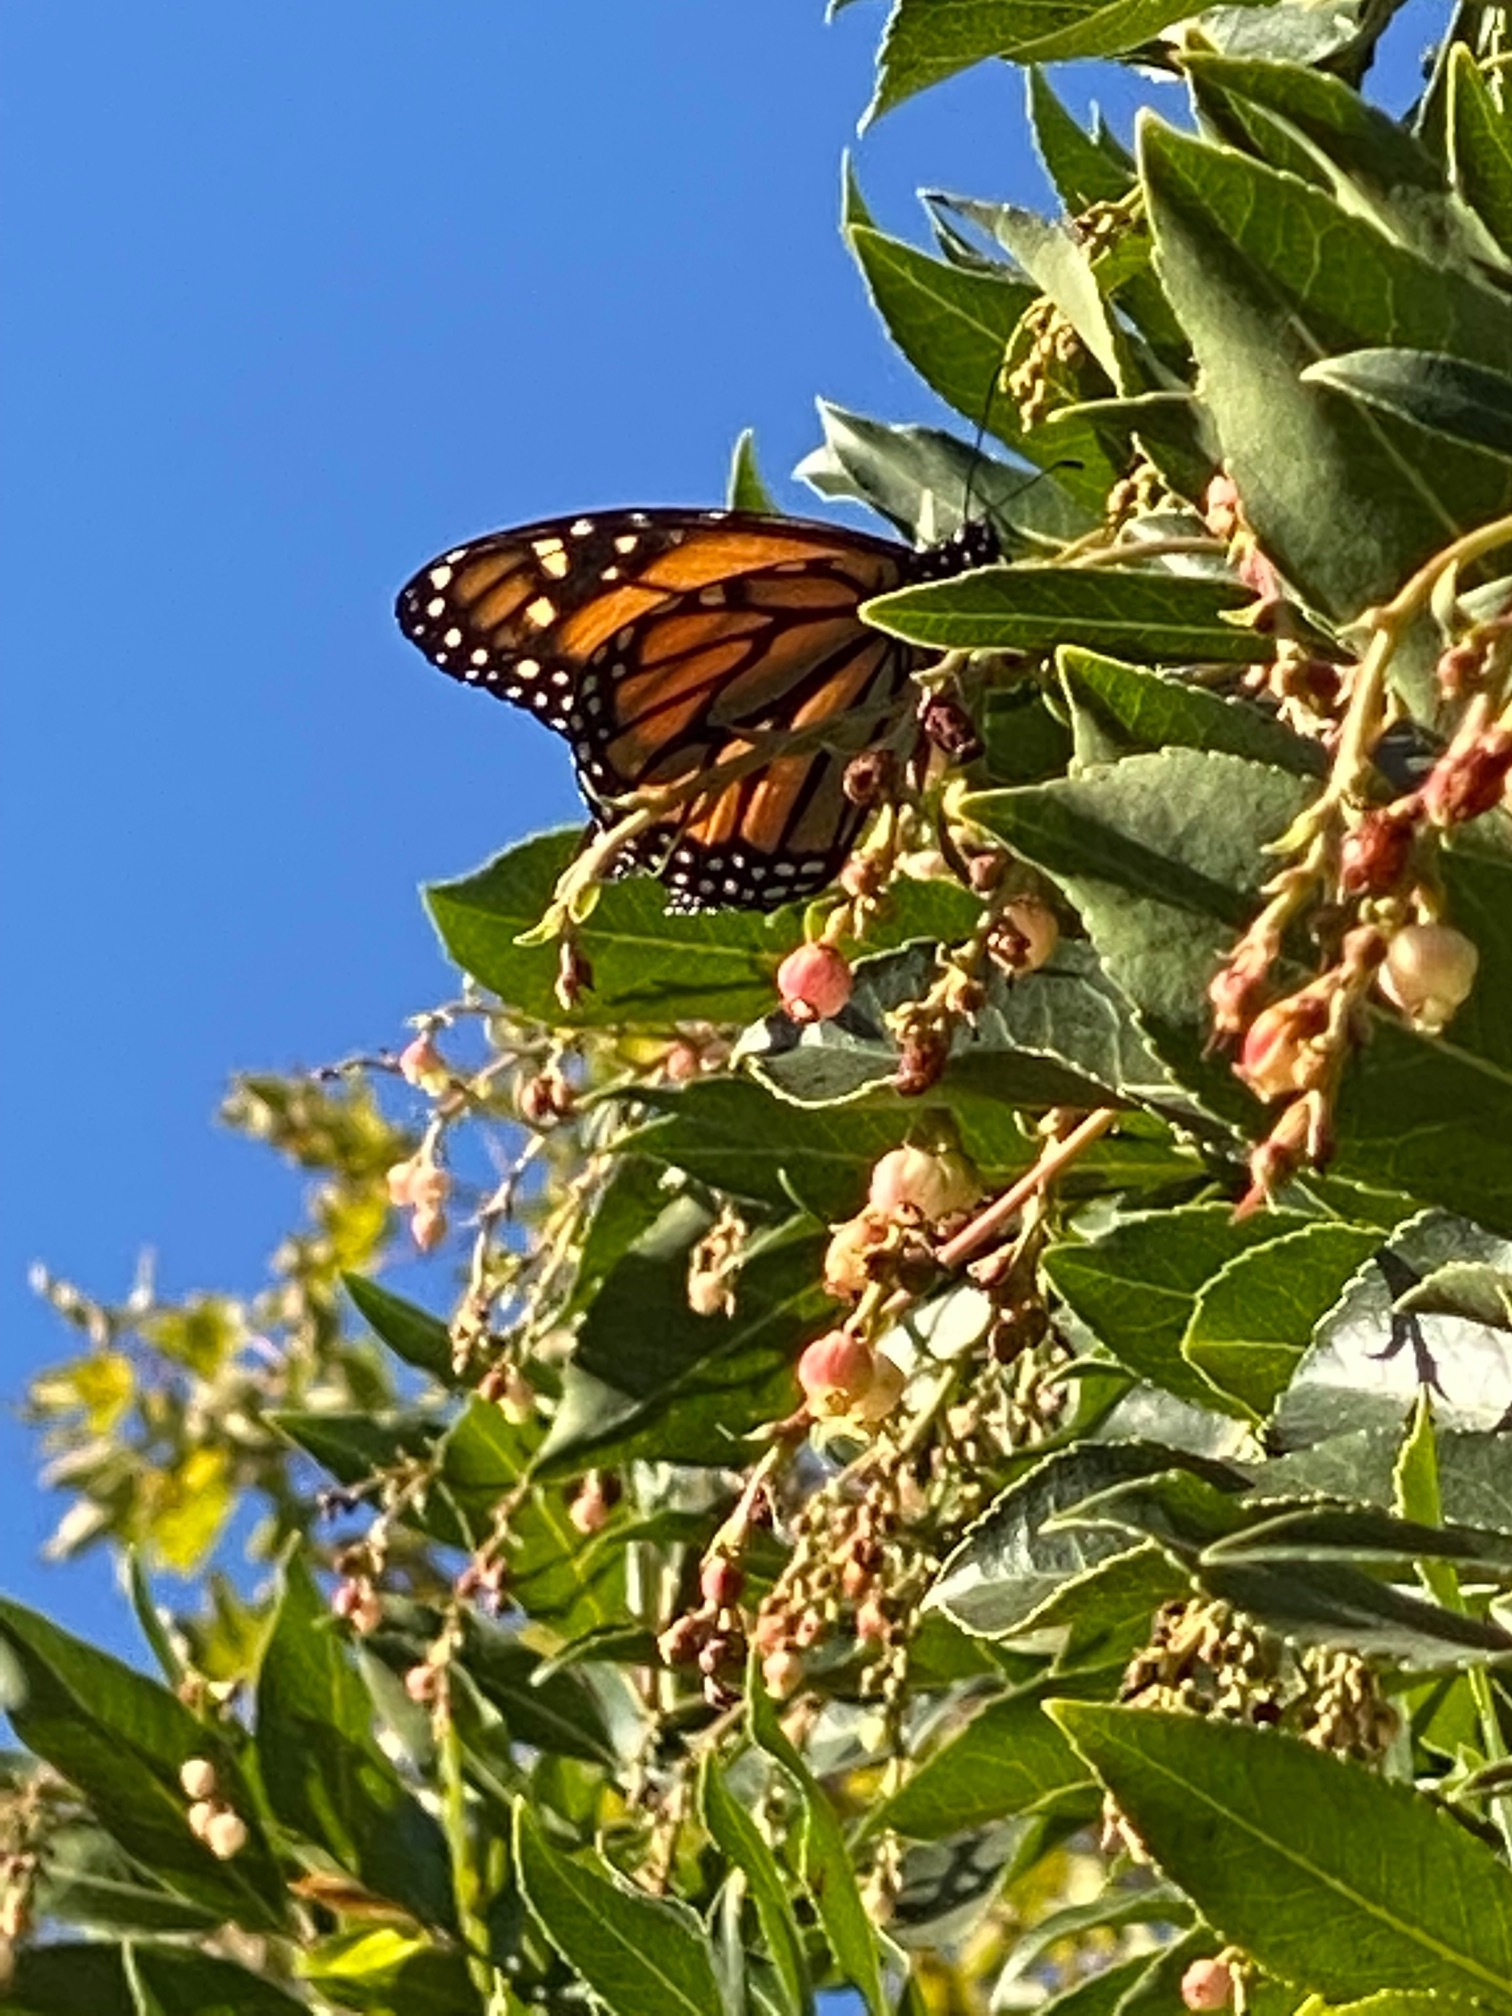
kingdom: Animalia
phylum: Arthropoda
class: Insecta
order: Lepidoptera
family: Nymphalidae
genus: Danaus
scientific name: Danaus plexippus
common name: Monarch
